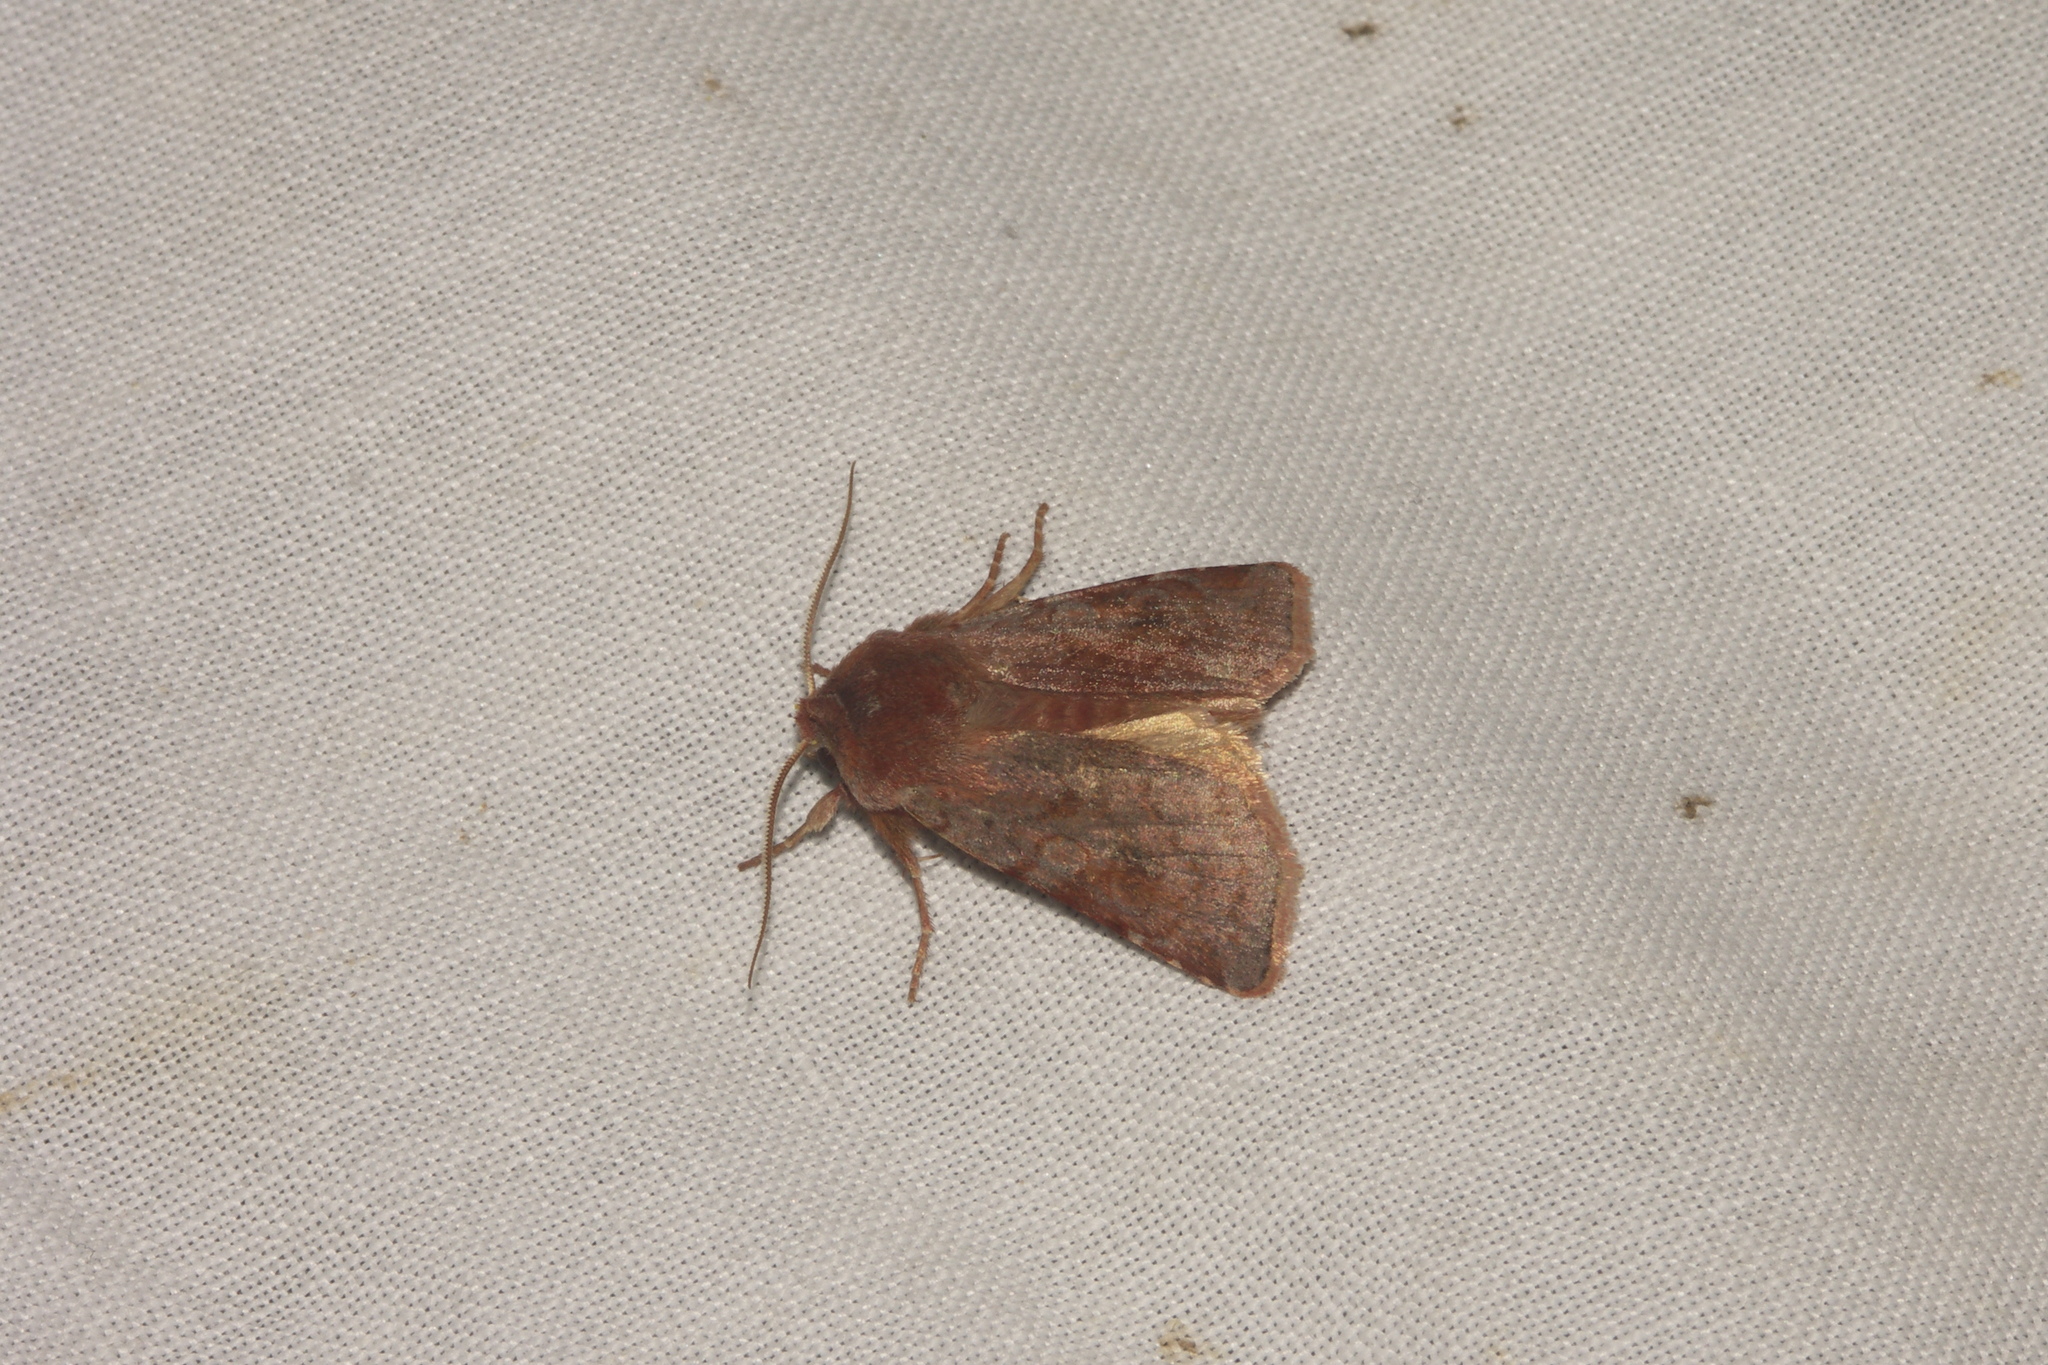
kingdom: Animalia
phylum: Arthropoda
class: Insecta
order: Lepidoptera
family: Noctuidae
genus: Cerastis
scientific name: Cerastis rubricosa
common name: Red chestnut
